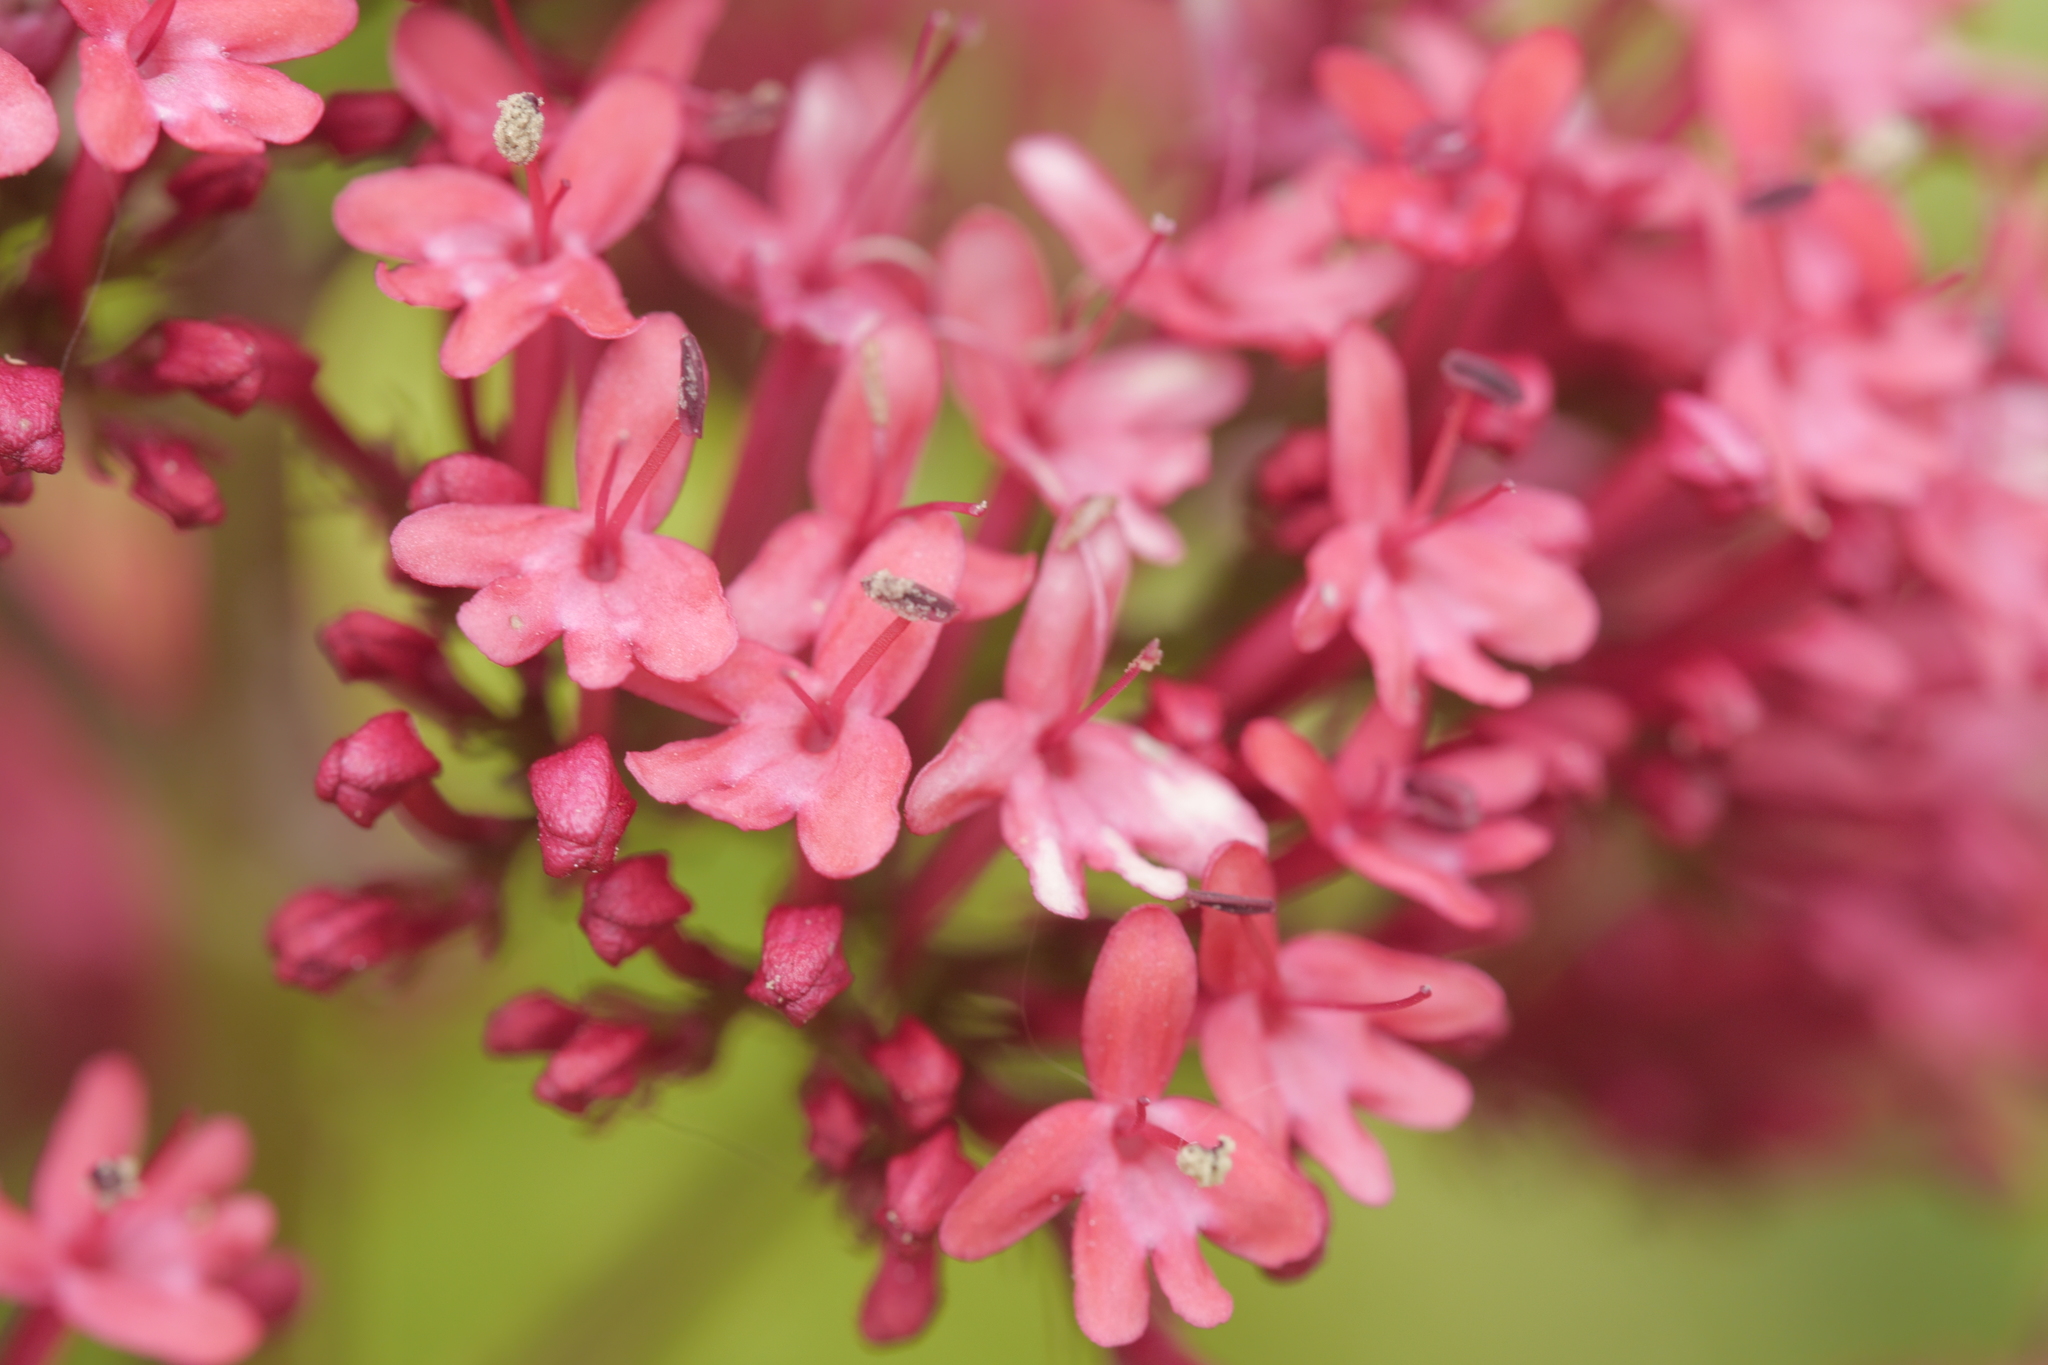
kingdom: Plantae
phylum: Tracheophyta
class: Magnoliopsida
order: Dipsacales
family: Caprifoliaceae
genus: Centranthus
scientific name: Centranthus ruber
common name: Red valerian
